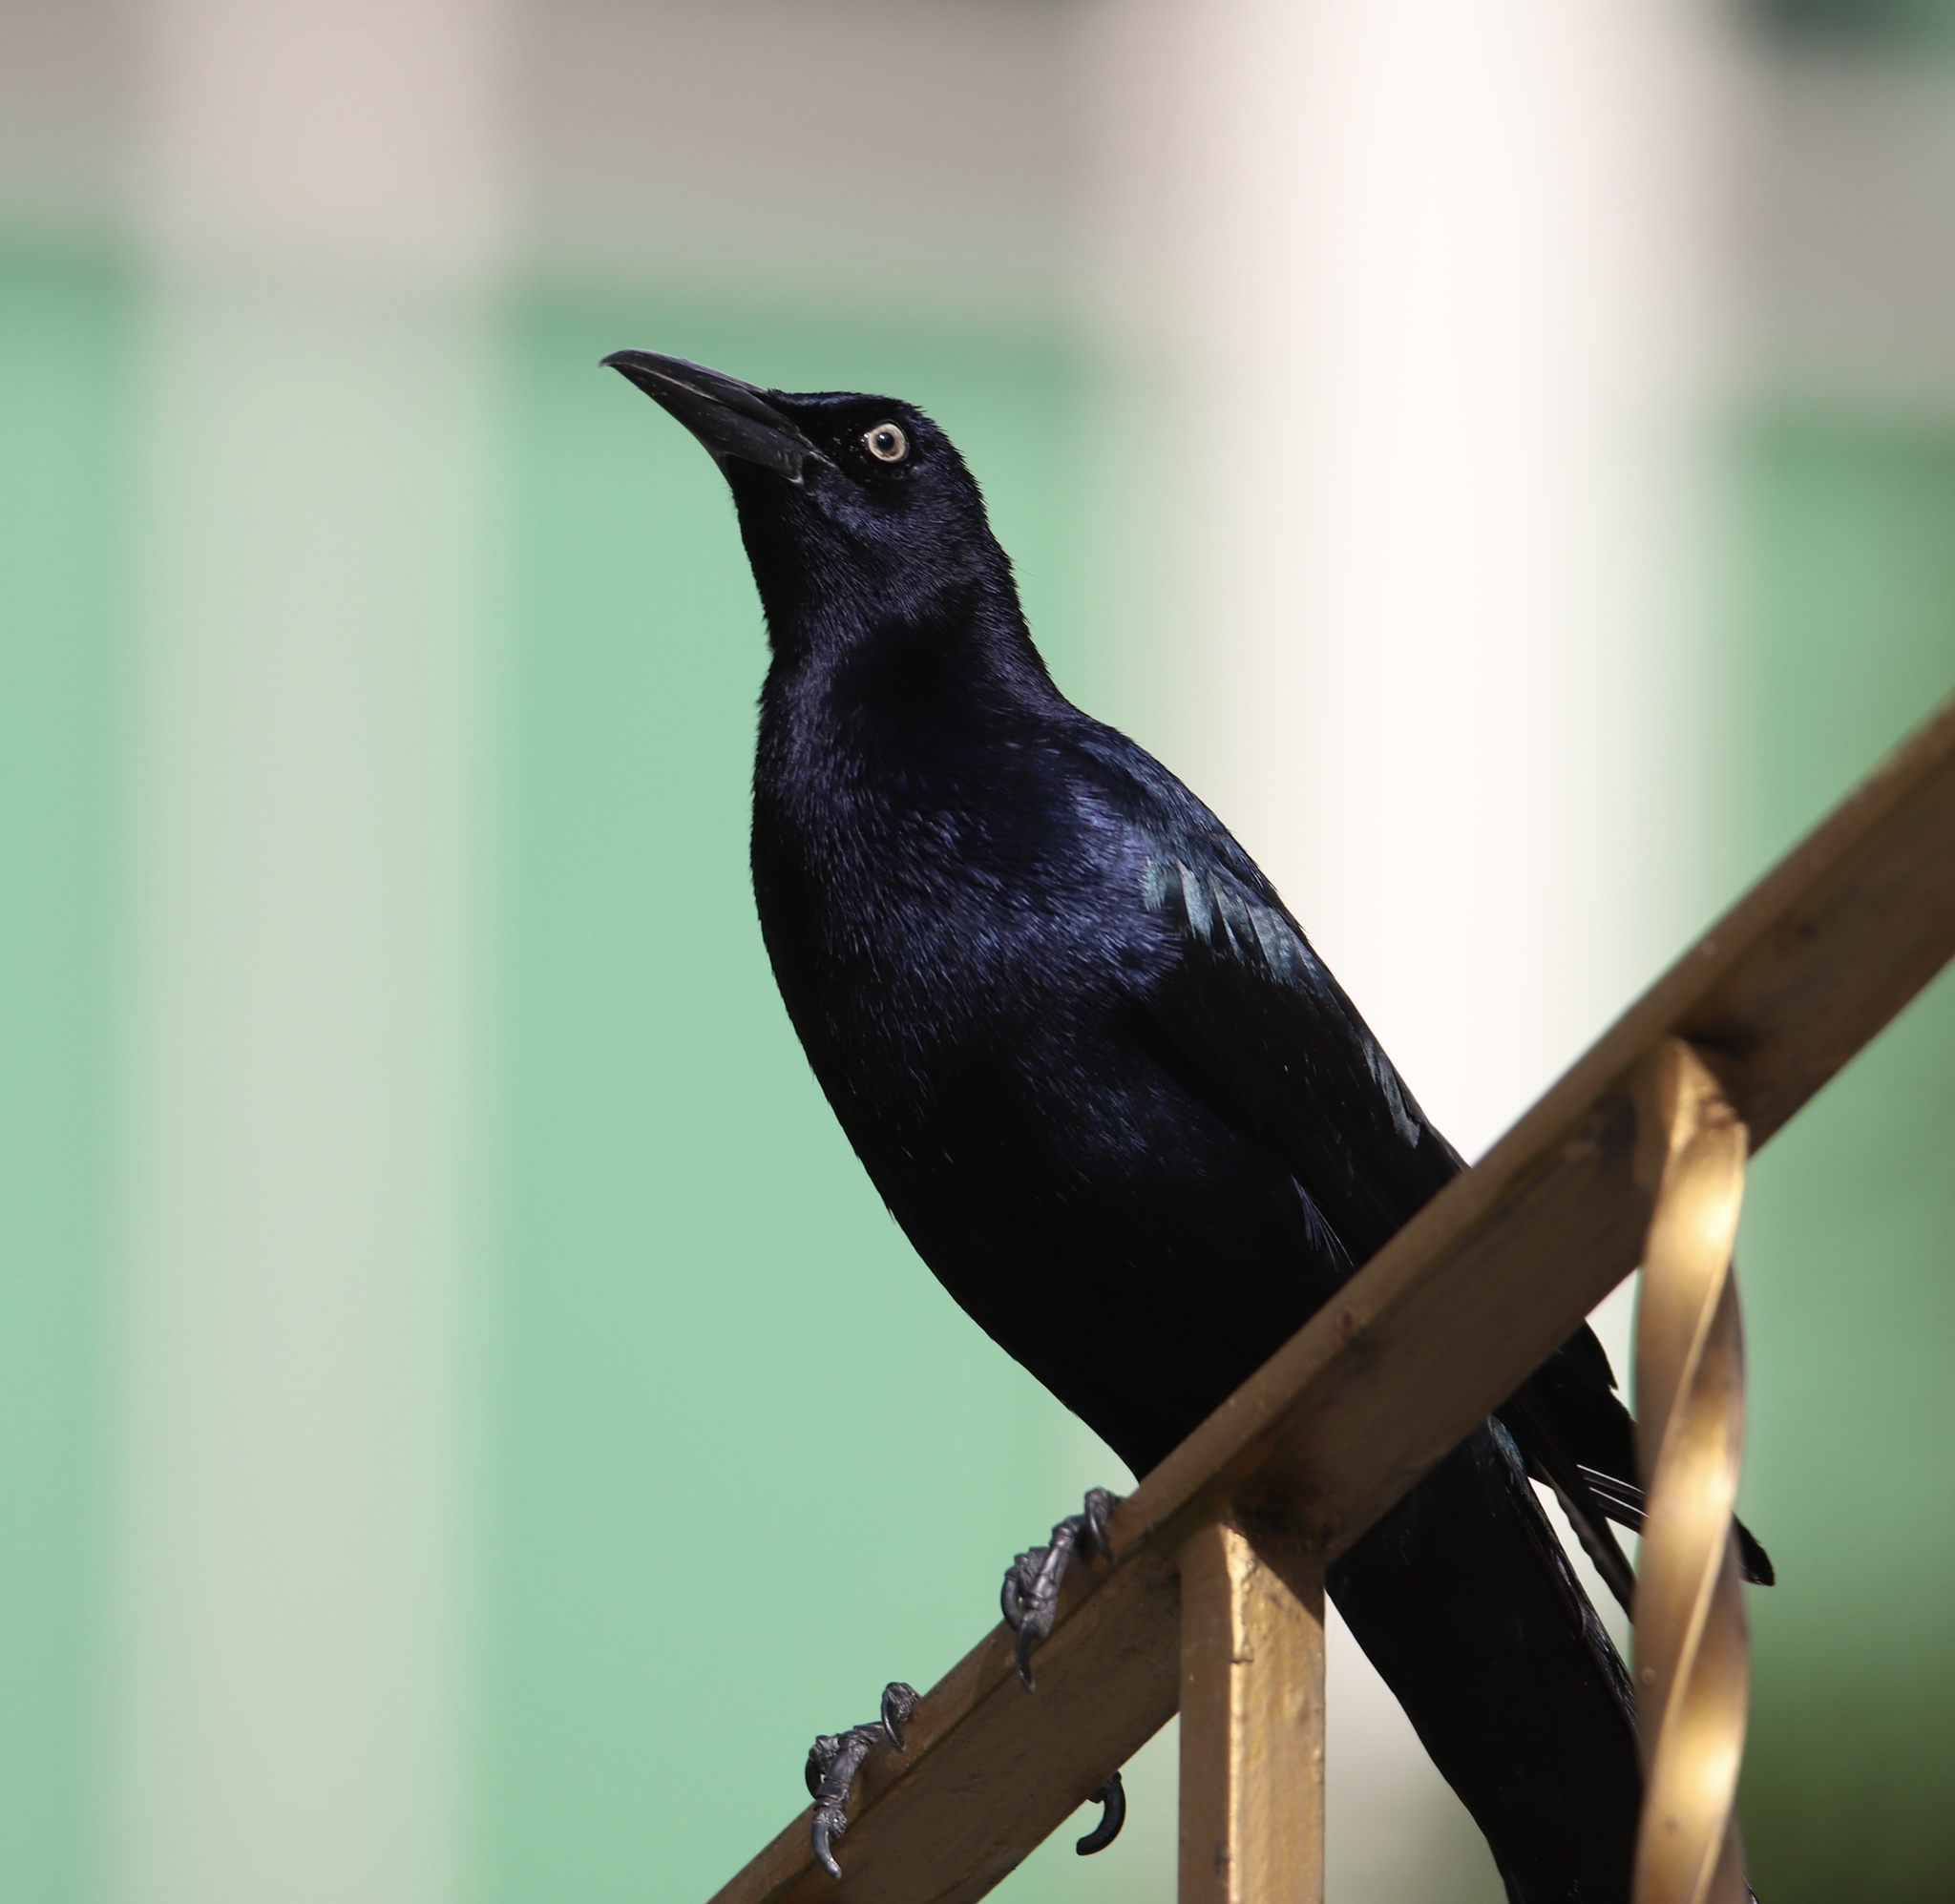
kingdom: Animalia
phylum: Chordata
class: Aves
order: Passeriformes
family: Icteridae
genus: Quiscalus
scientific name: Quiscalus mexicanus
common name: Great-tailed grackle
